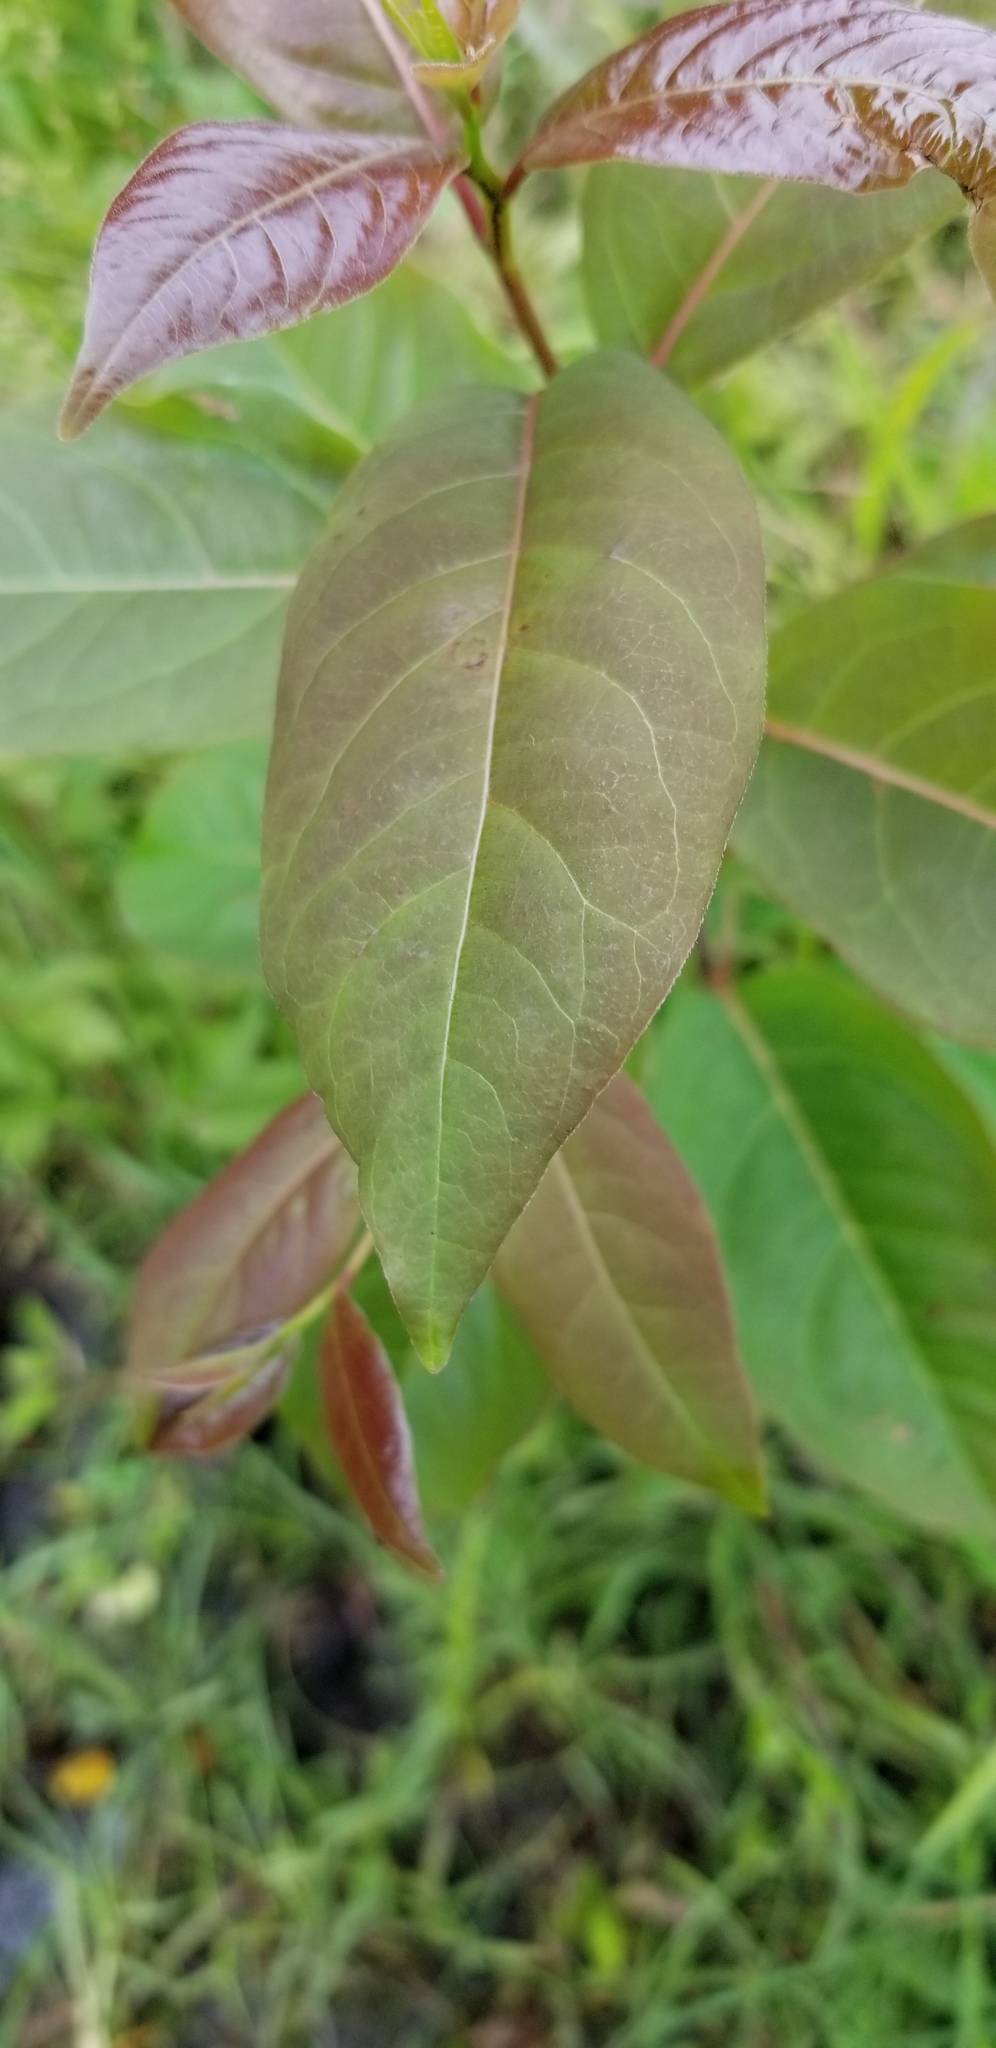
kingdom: Plantae
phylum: Tracheophyta
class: Magnoliopsida
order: Ericales
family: Ebenaceae
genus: Diospyros
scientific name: Diospyros virginiana
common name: Persimmon
